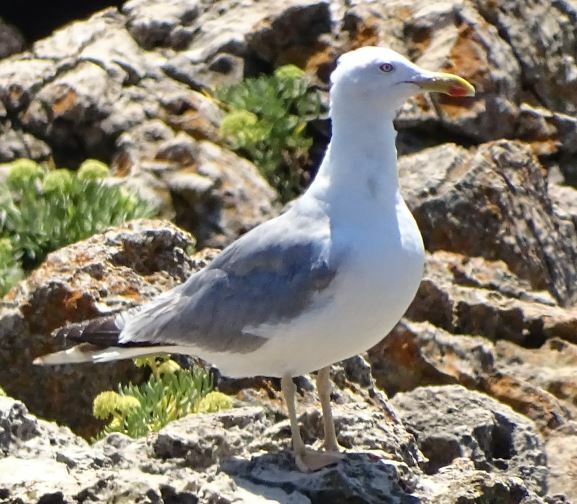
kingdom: Animalia
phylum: Chordata
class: Aves
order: Charadriiformes
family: Laridae
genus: Larus
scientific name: Larus michahellis
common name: Yellow-legged gull
